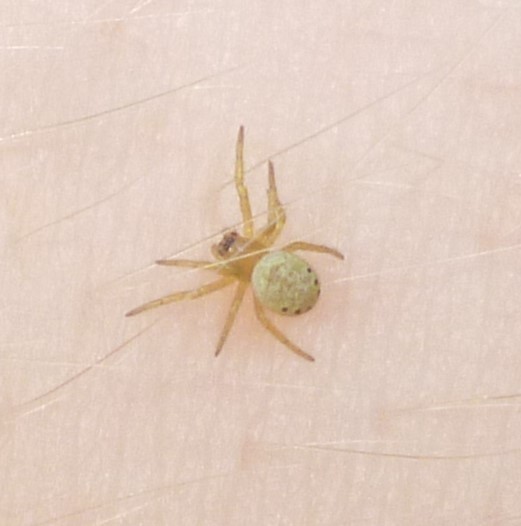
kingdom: Animalia
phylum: Arthropoda
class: Arachnida
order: Araneae
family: Araneidae
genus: Araniella
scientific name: Araniella displicata
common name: Sixspotted orb weaver
